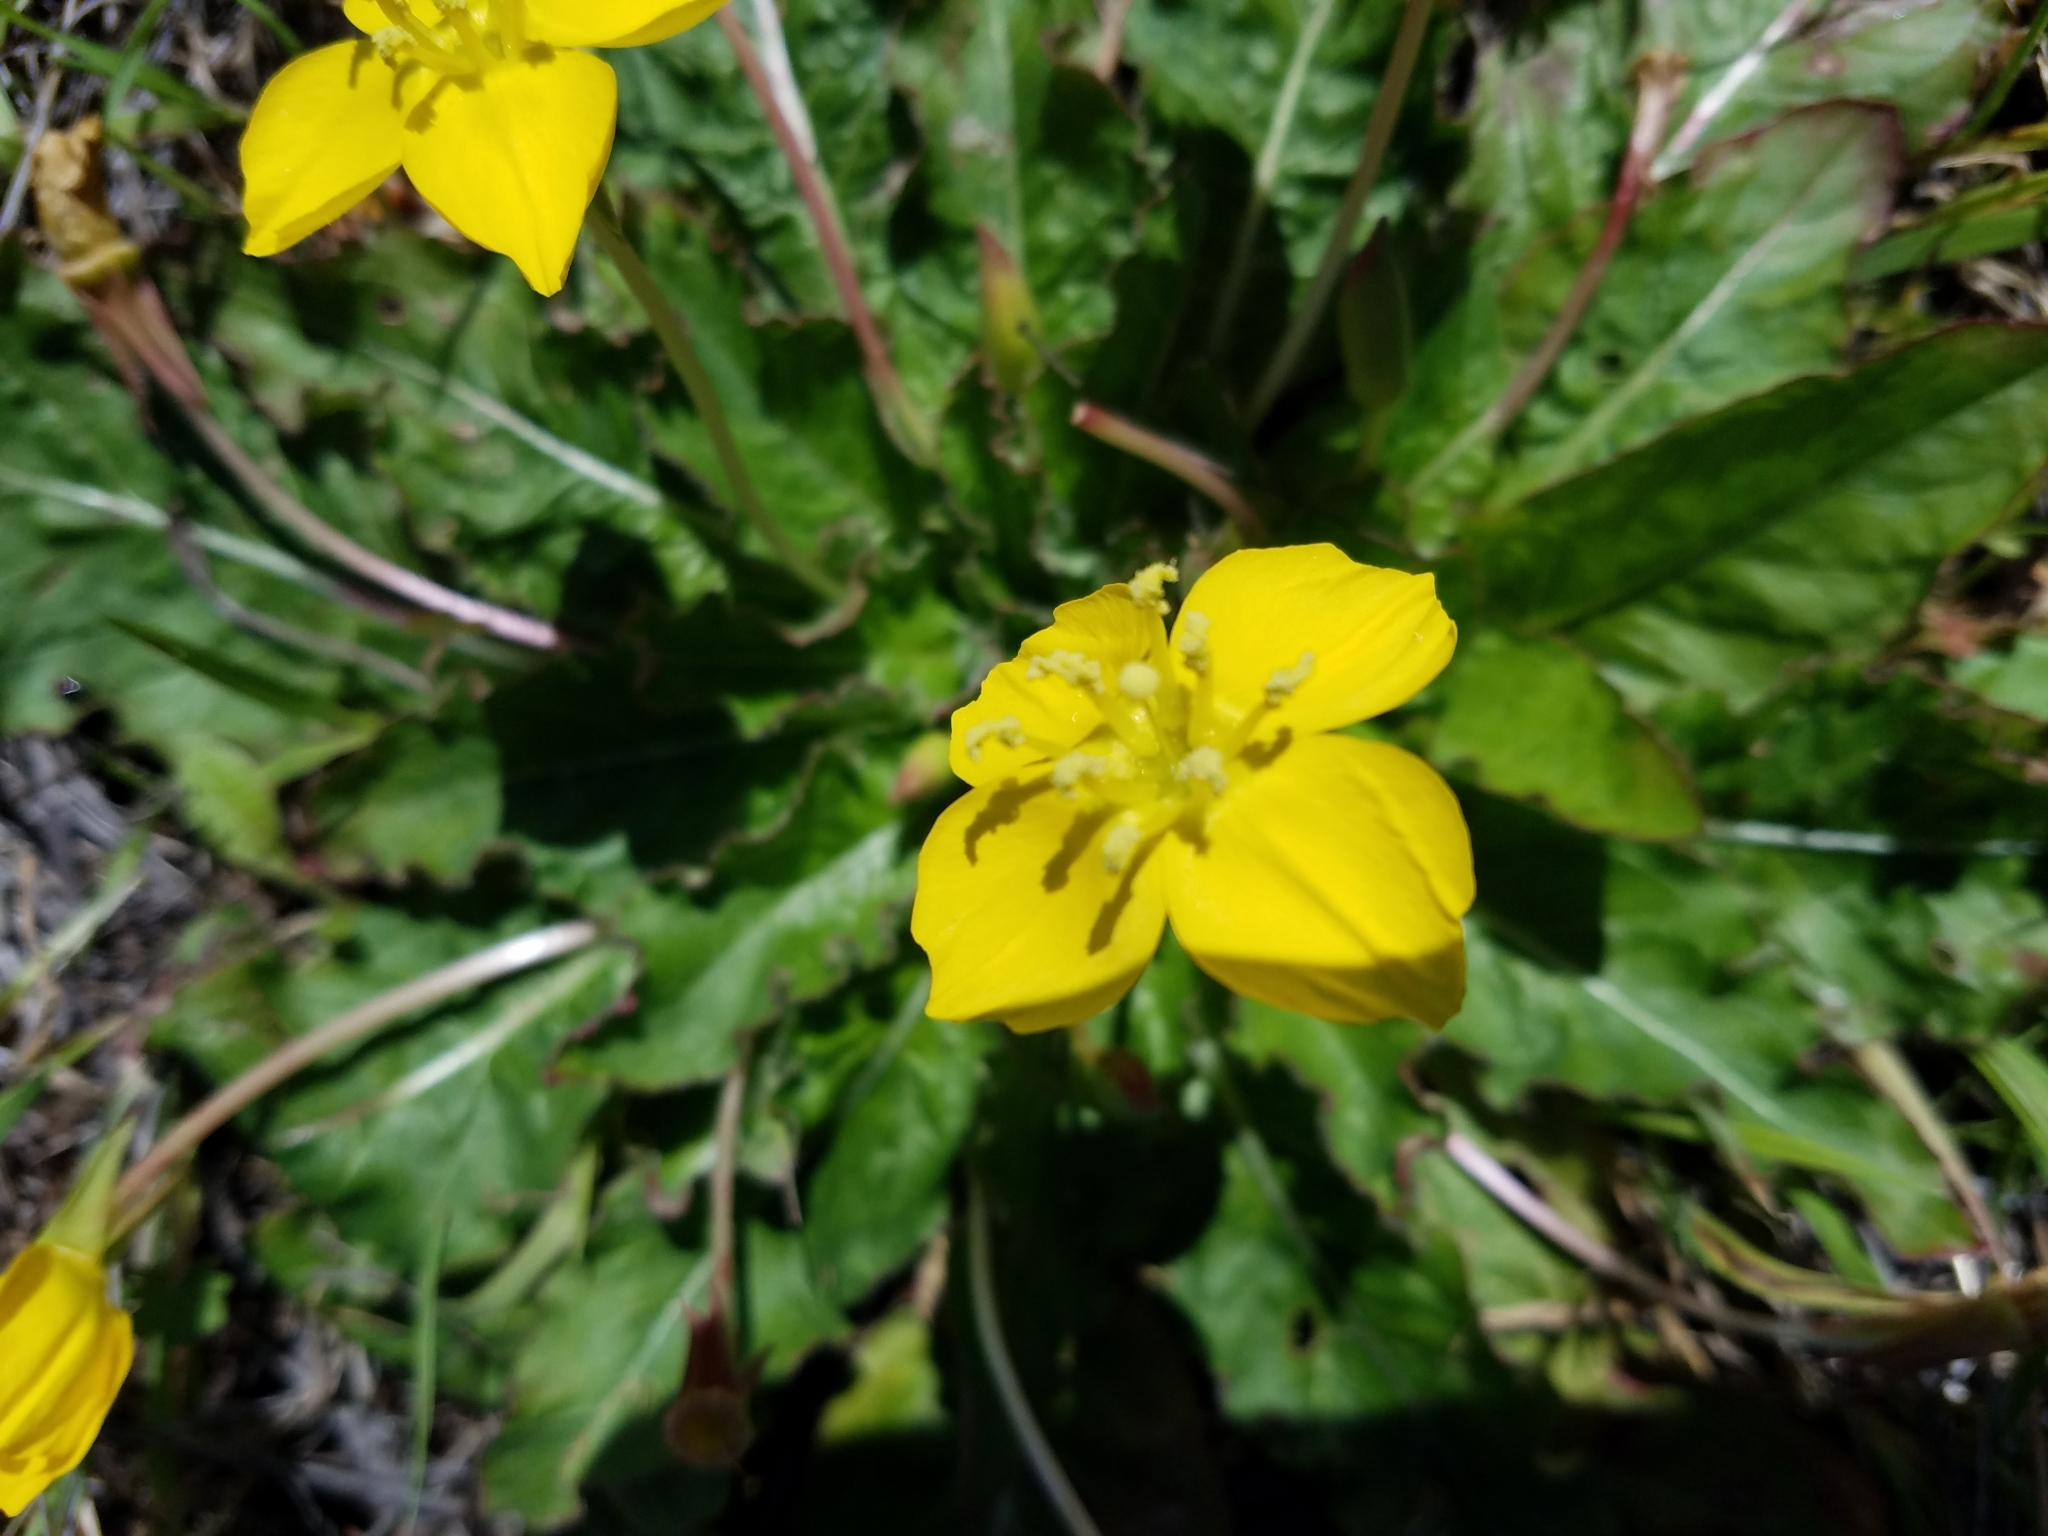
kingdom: Plantae
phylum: Tracheophyta
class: Magnoliopsida
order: Myrtales
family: Onagraceae
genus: Taraxia
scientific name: Taraxia ovata
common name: Goldeneggs
